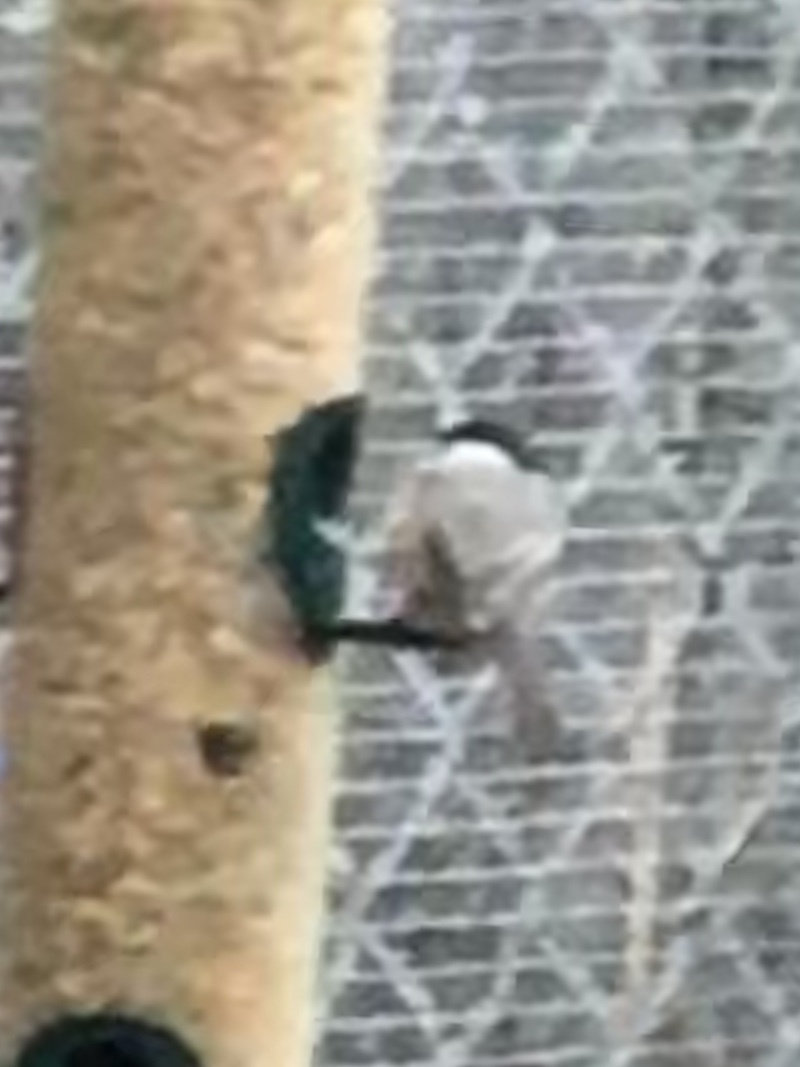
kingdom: Animalia
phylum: Chordata
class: Aves
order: Passeriformes
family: Paridae
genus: Poecile
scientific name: Poecile carolinensis
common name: Carolina chickadee
